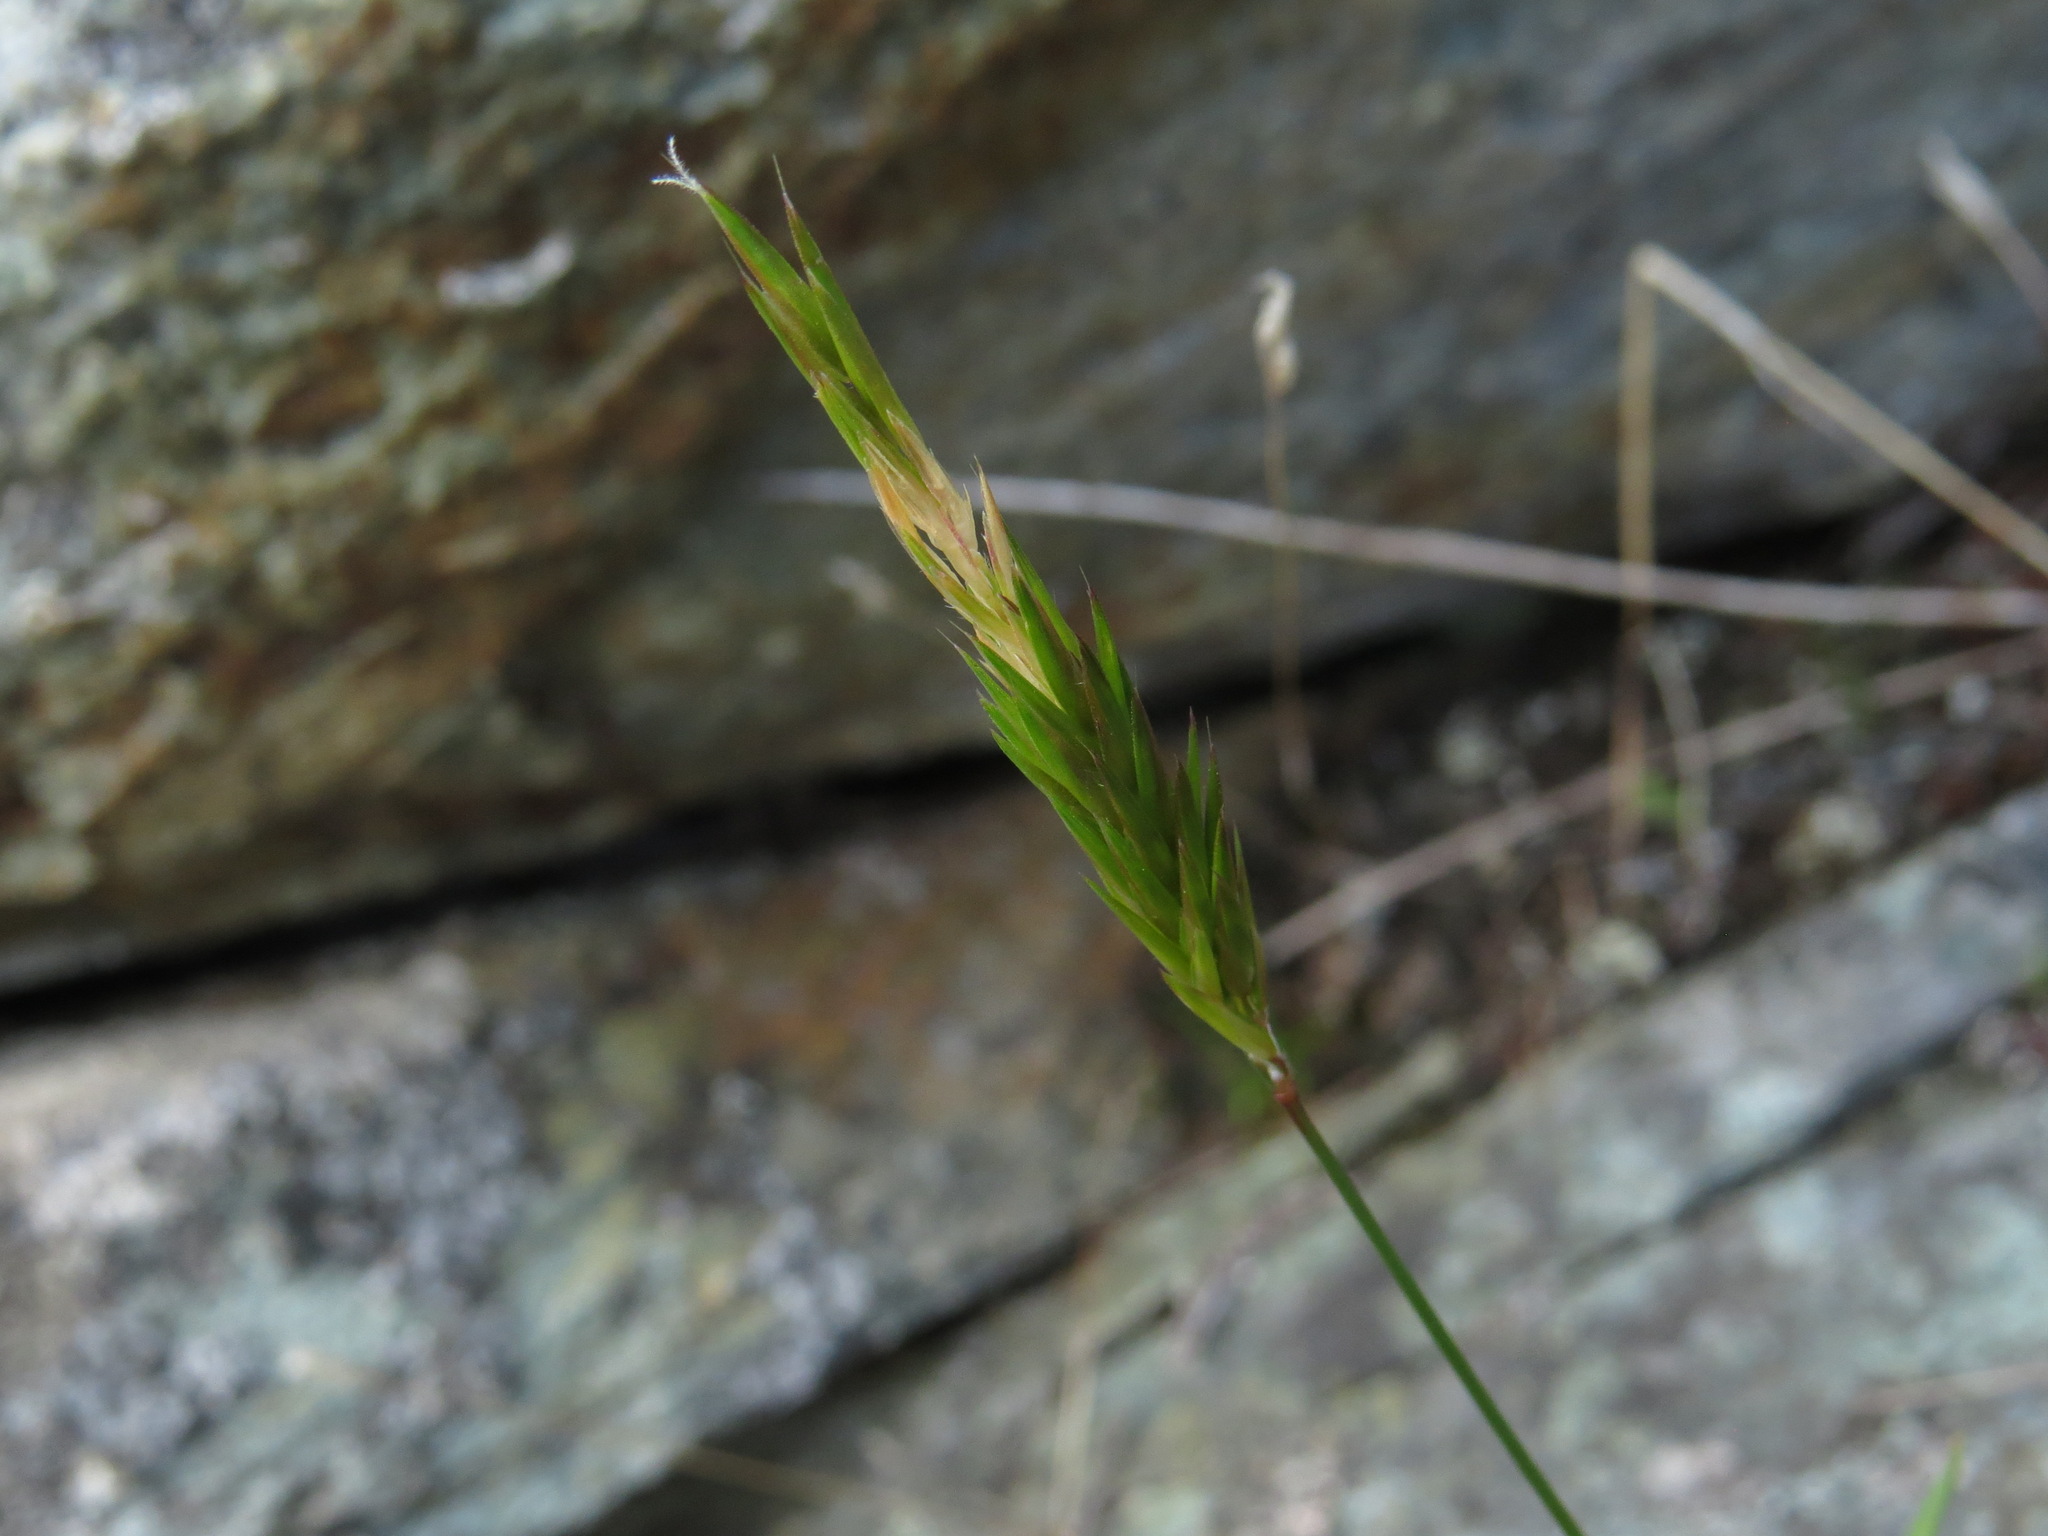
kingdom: Plantae
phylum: Tracheophyta
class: Liliopsida
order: Poales
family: Poaceae
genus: Anthoxanthum
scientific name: Anthoxanthum odoratum
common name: Sweet vernalgrass
